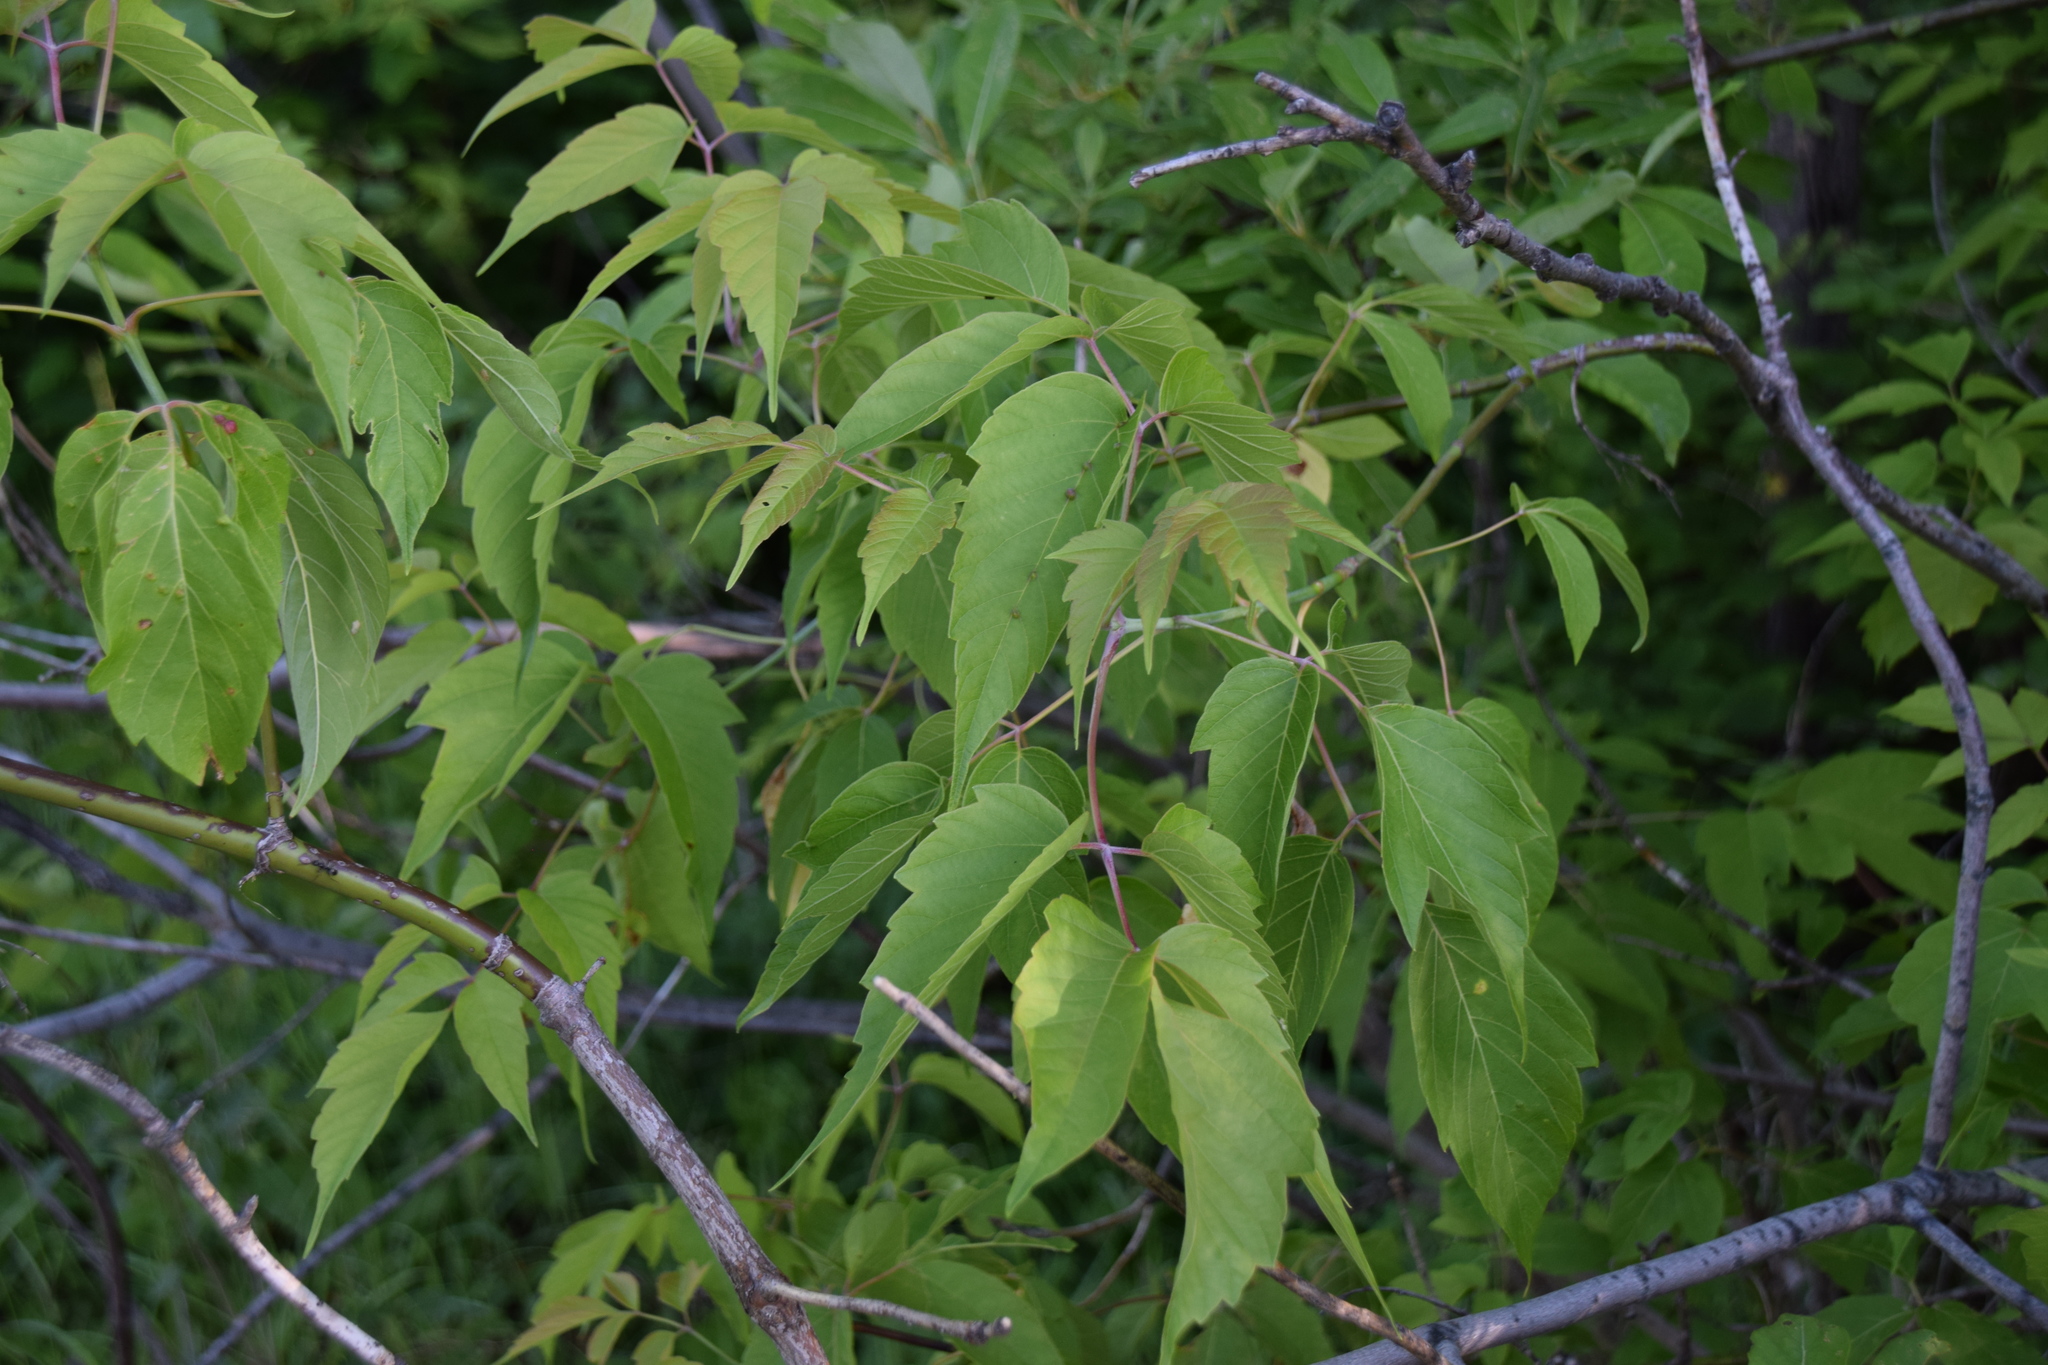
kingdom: Plantae
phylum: Tracheophyta
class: Magnoliopsida
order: Sapindales
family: Sapindaceae
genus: Acer
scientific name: Acer negundo
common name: Ashleaf maple
